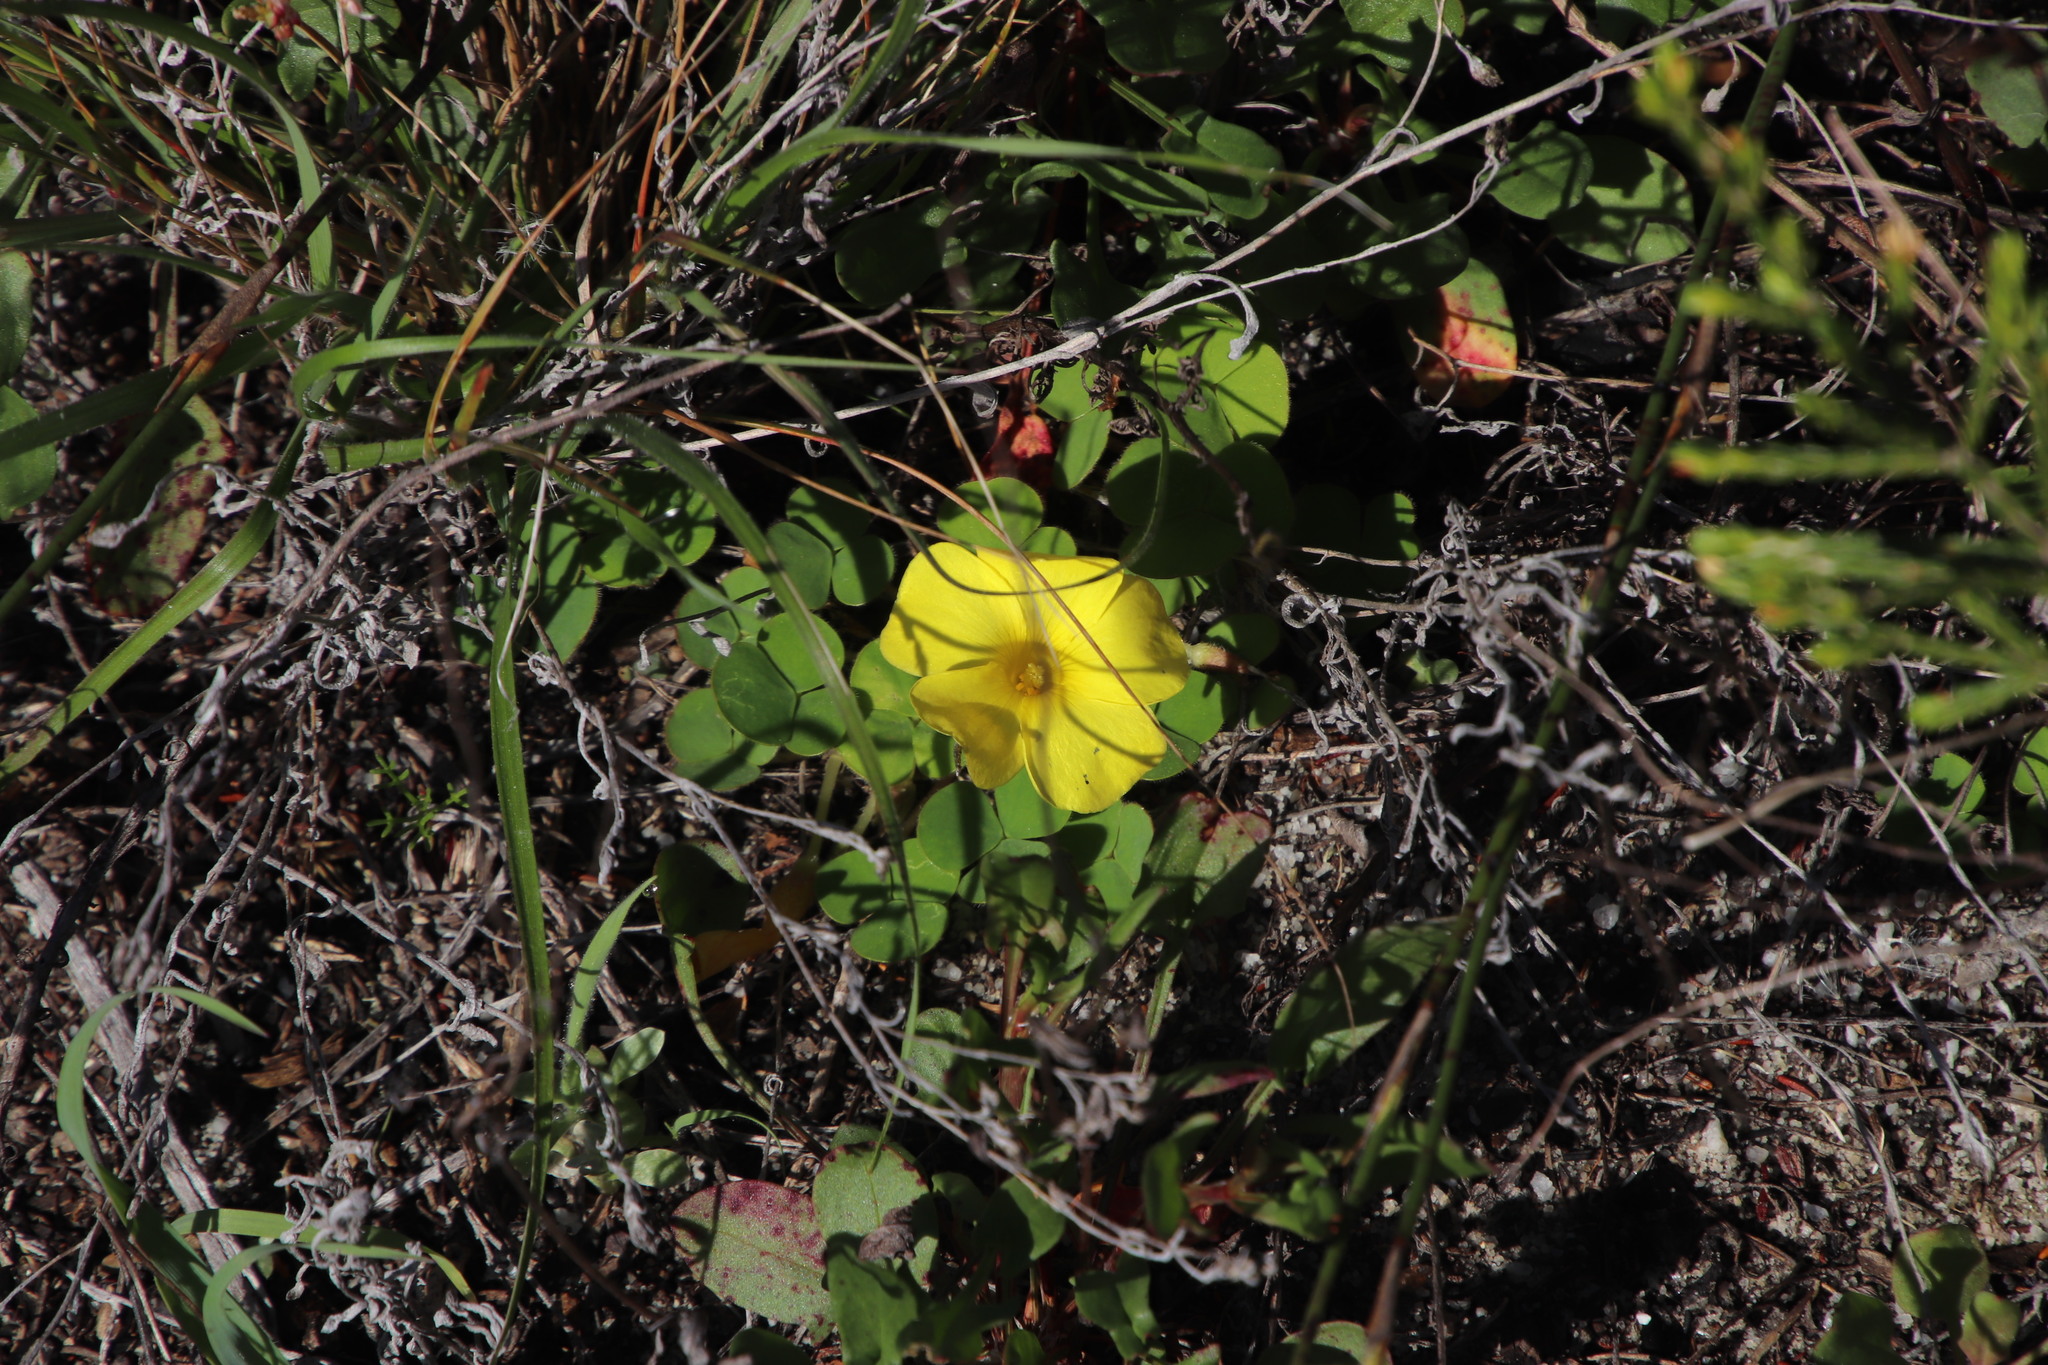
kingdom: Plantae
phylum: Tracheophyta
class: Magnoliopsida
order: Oxalidales
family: Oxalidaceae
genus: Oxalis
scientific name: Oxalis luteola
